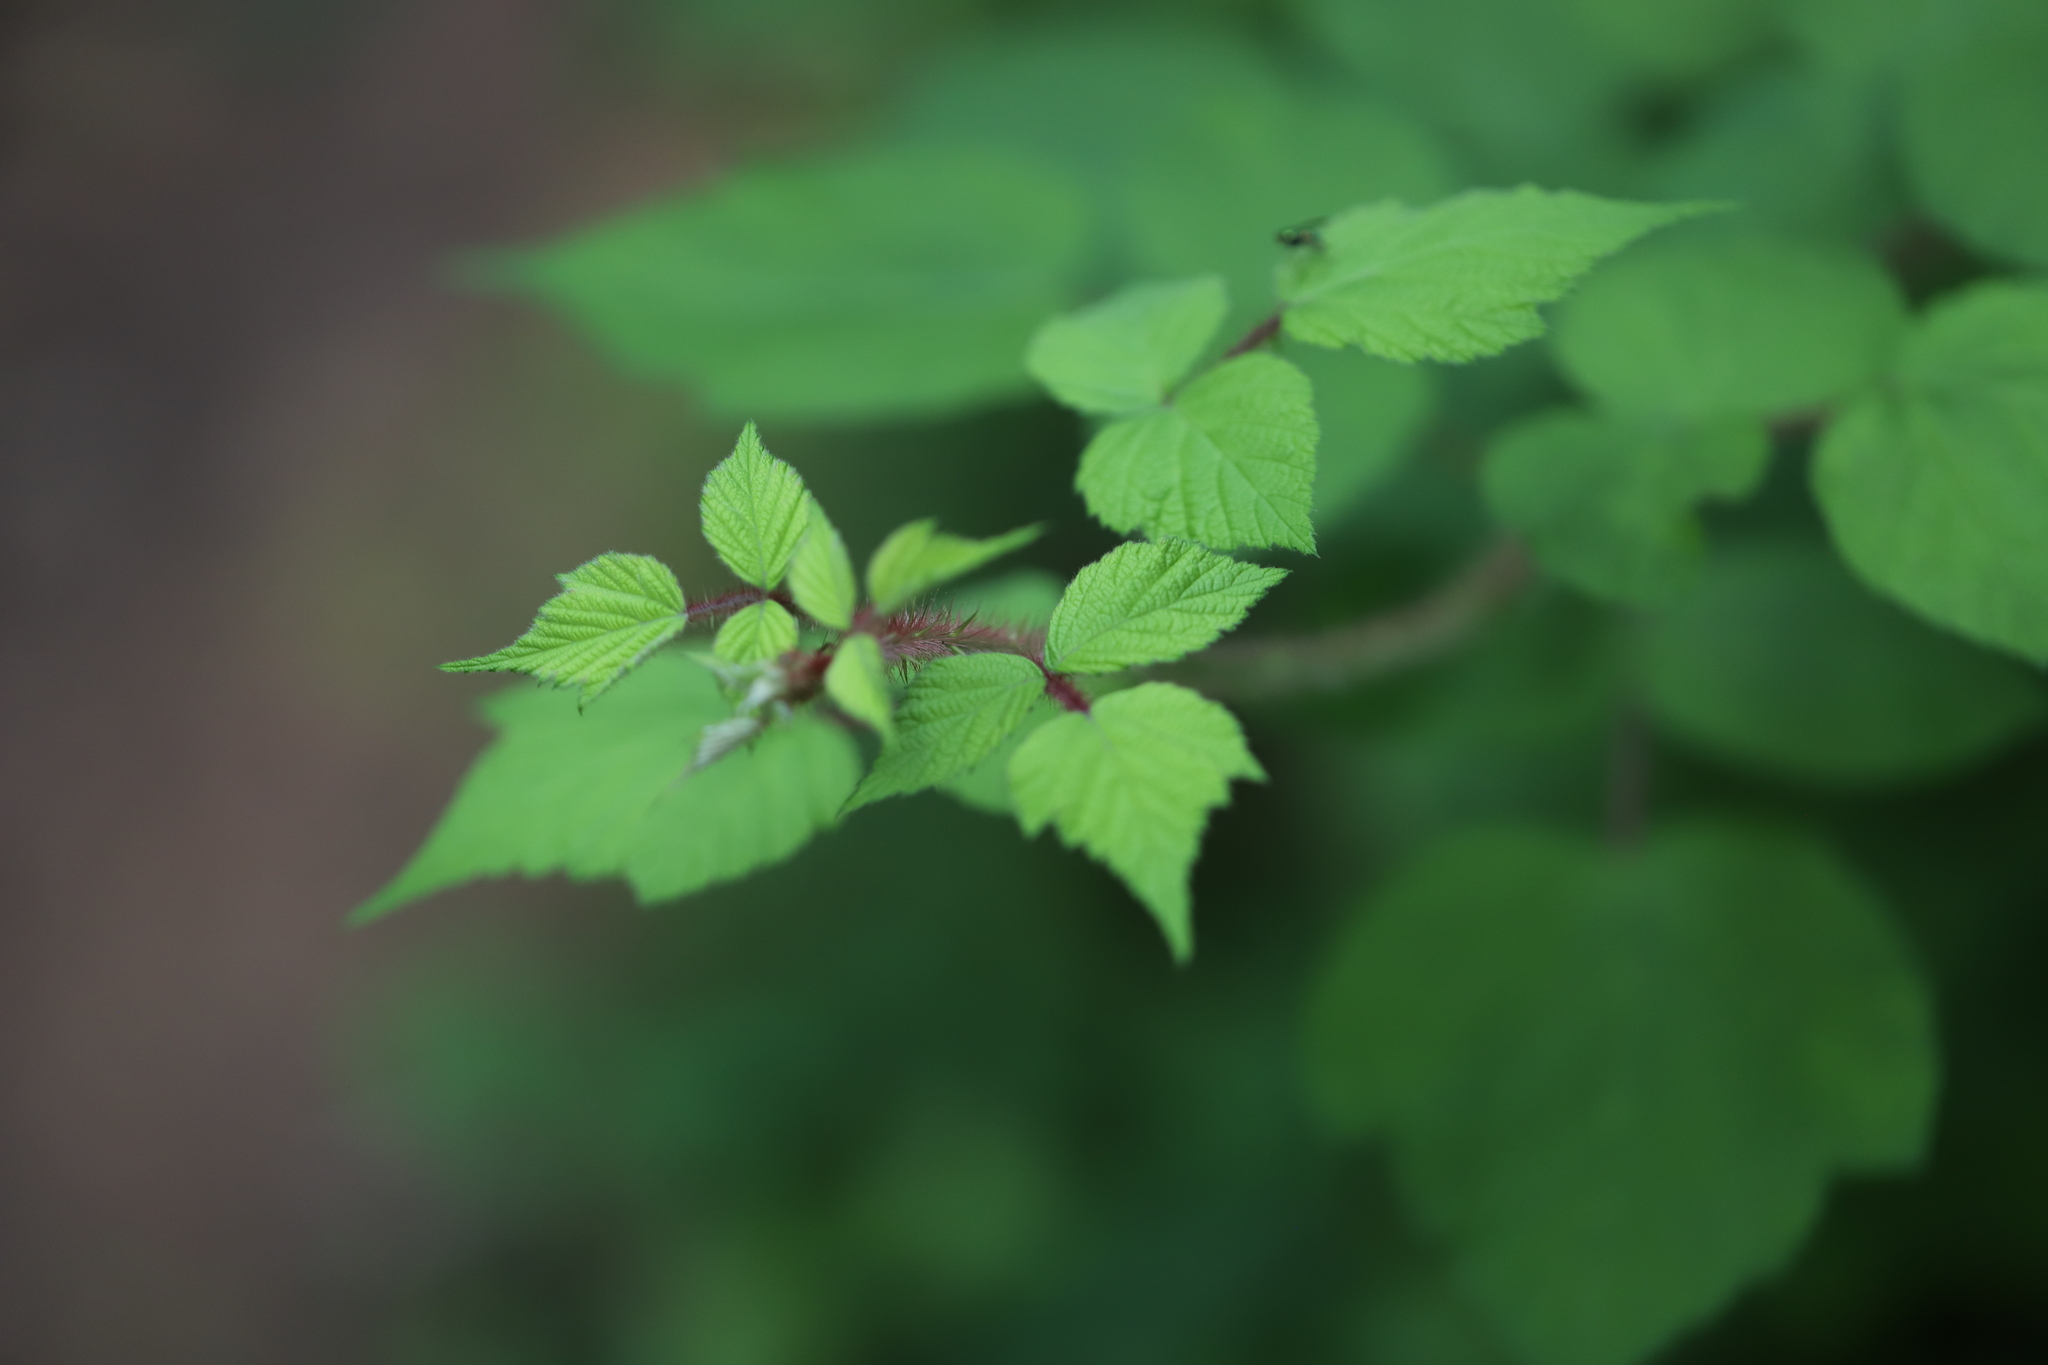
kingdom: Plantae
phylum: Tracheophyta
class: Magnoliopsida
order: Rosales
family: Rosaceae
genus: Rubus
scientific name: Rubus phoenicolasius
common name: Japanese wineberry
